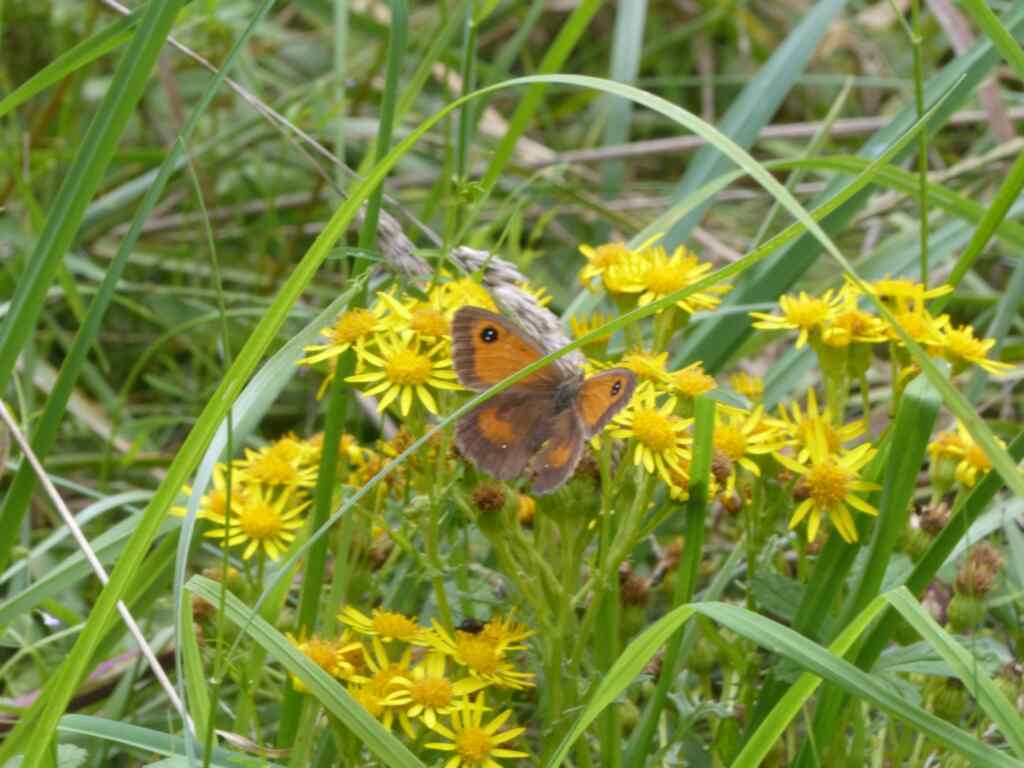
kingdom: Animalia
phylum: Arthropoda
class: Insecta
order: Lepidoptera
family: Nymphalidae
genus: Pyronia
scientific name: Pyronia tithonus
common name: Gatekeeper
